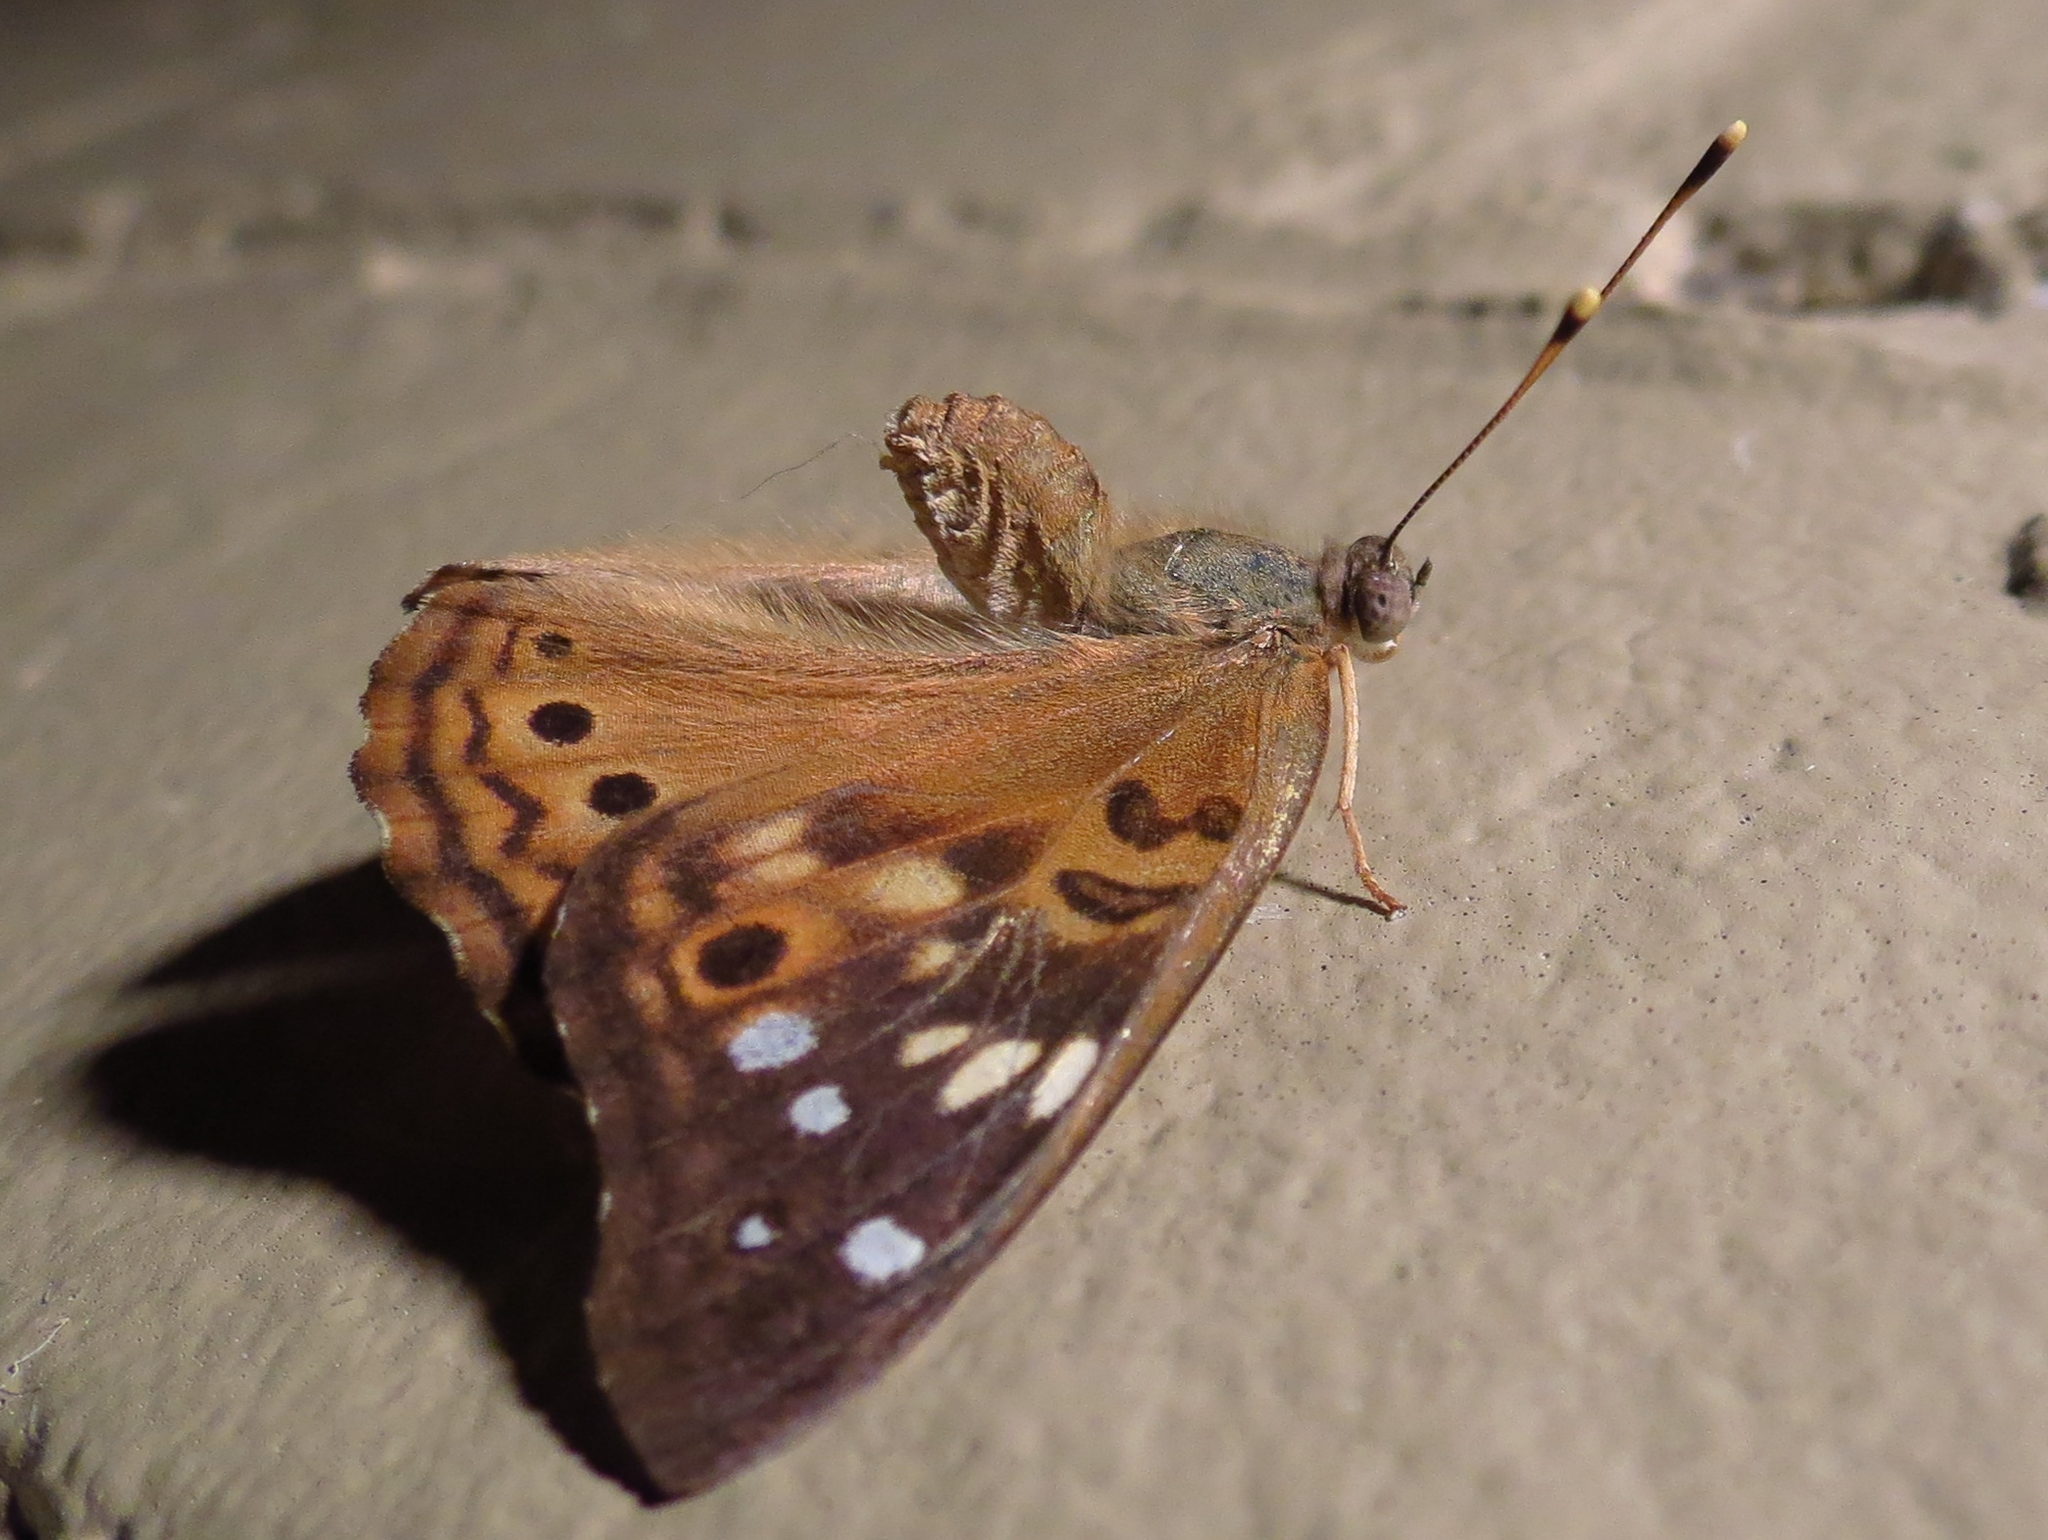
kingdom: Animalia
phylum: Arthropoda
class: Insecta
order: Lepidoptera
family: Nymphalidae
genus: Asterocampa
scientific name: Asterocampa celtis
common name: Hackberry emperor
